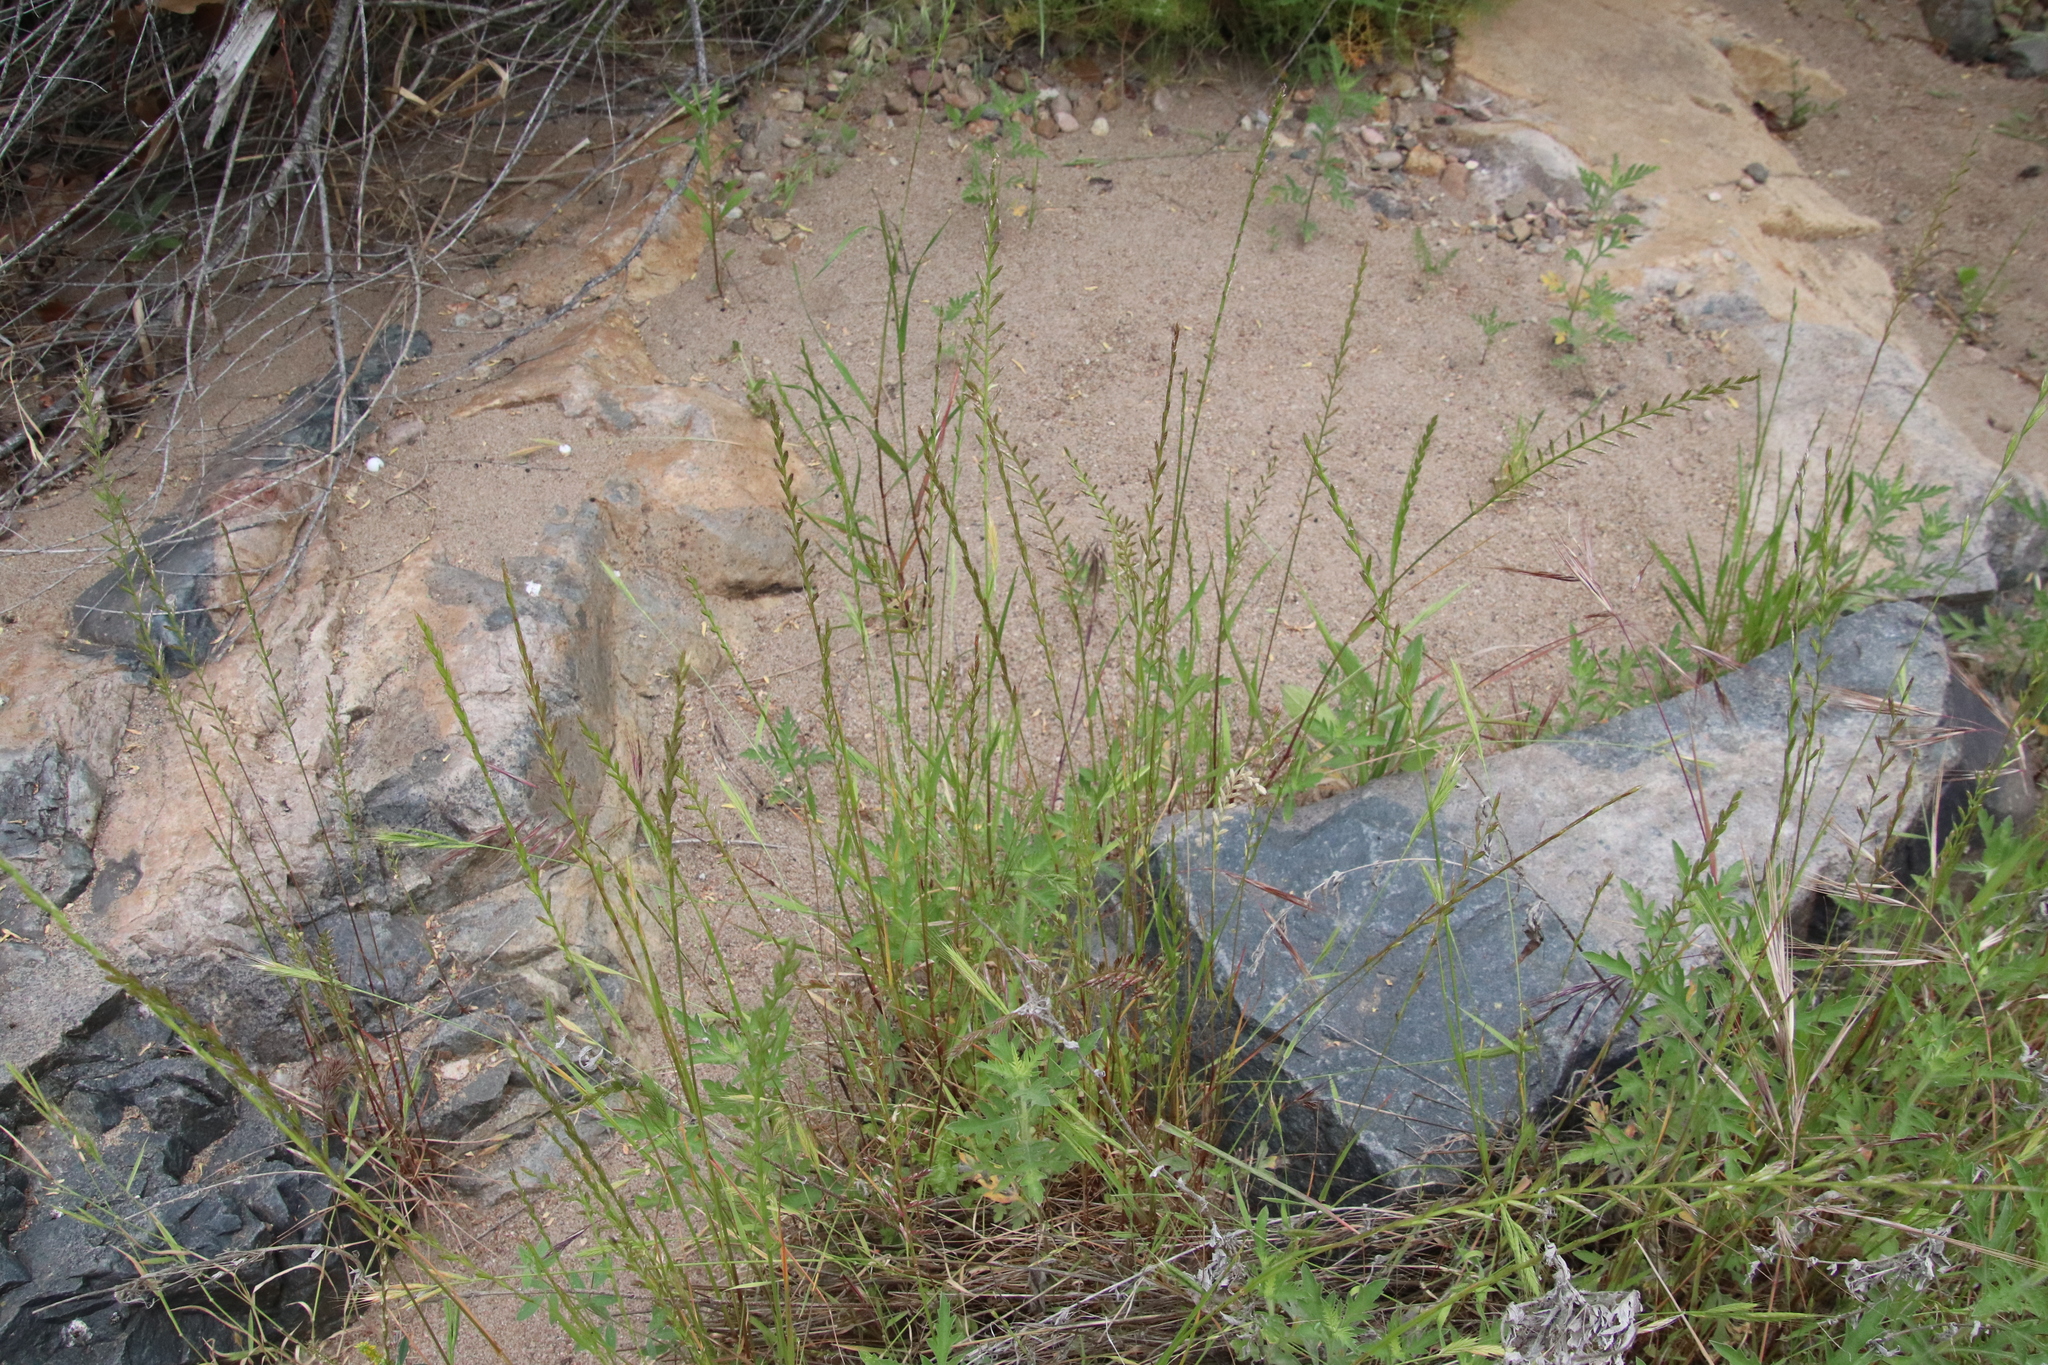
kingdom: Plantae
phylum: Tracheophyta
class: Liliopsida
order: Poales
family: Poaceae
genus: Lolium
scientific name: Lolium multiflorum
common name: Annual ryegrass
